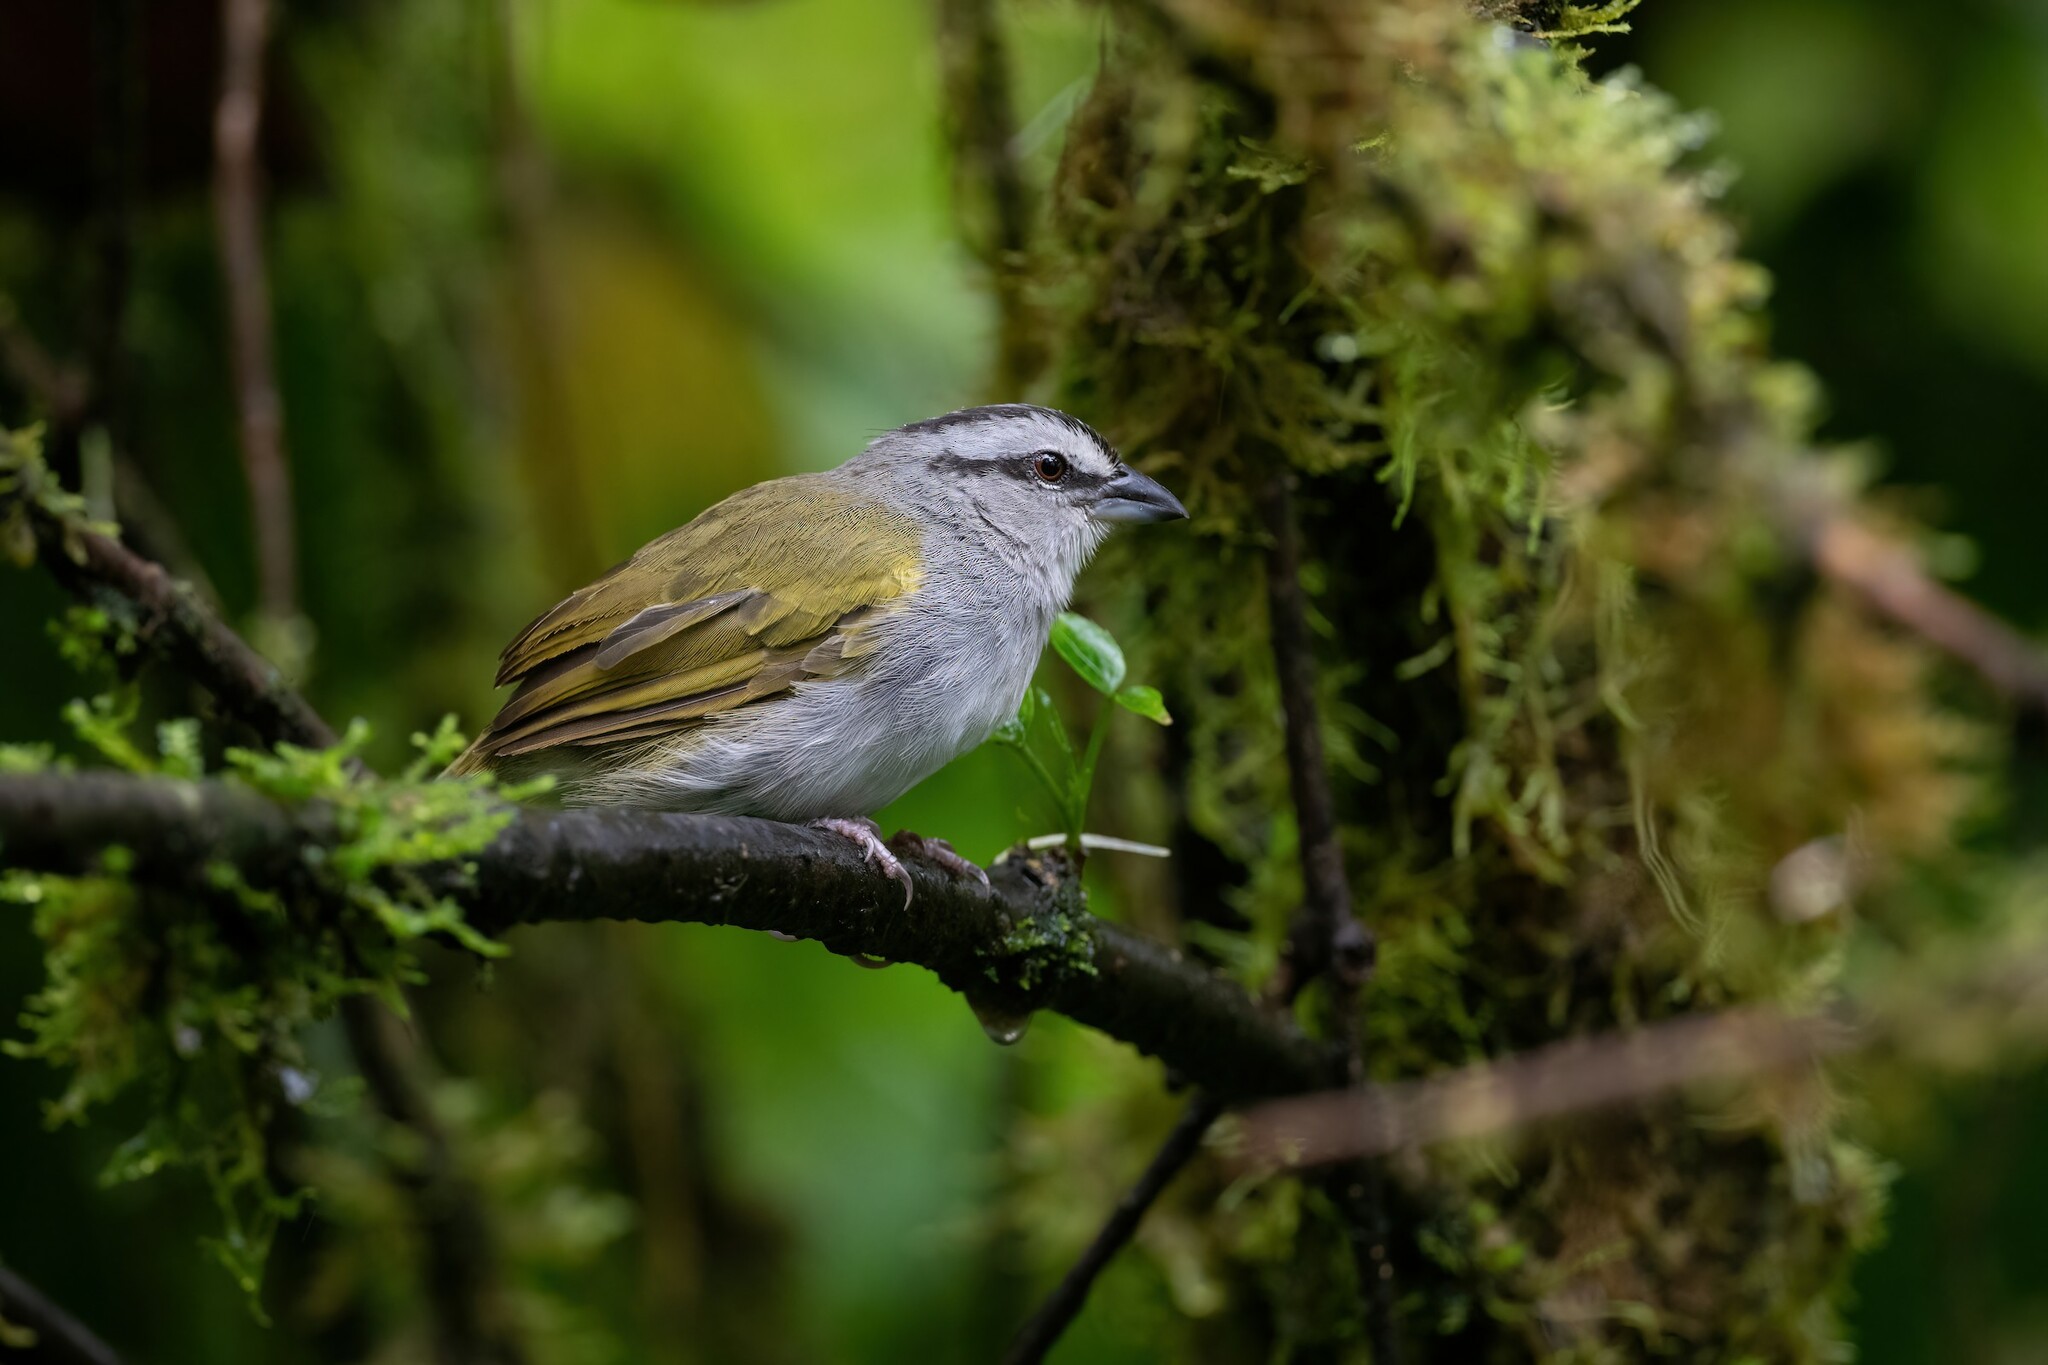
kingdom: Animalia
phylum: Chordata
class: Aves
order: Passeriformes
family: Passerellidae
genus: Arremonops
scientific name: Arremonops conirostris
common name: Black-striped sparrow
